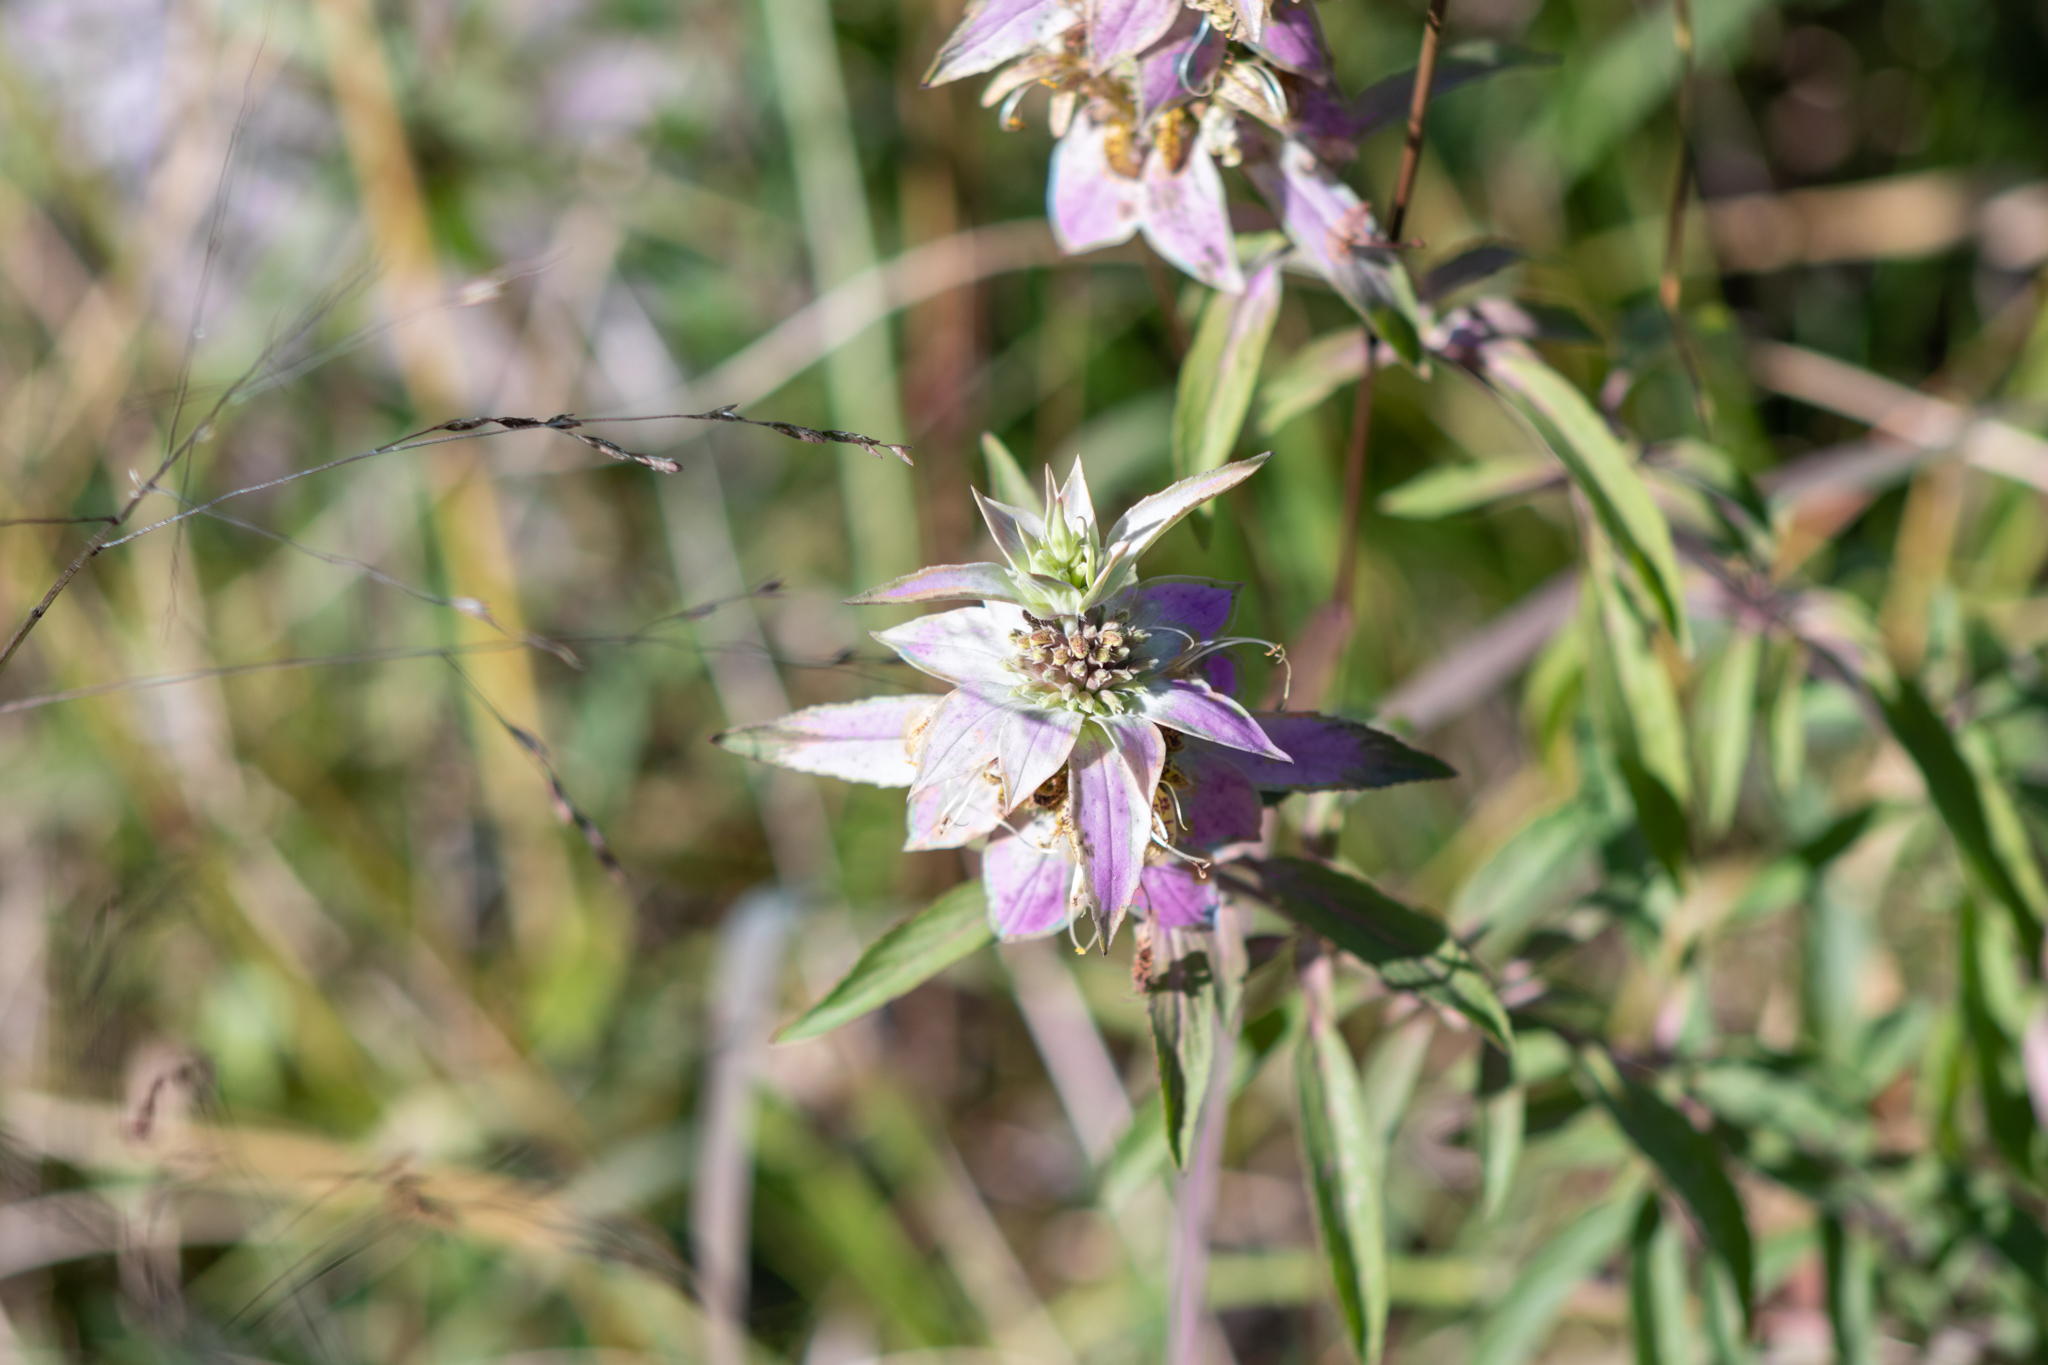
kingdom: Plantae
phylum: Tracheophyta
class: Magnoliopsida
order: Lamiales
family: Lamiaceae
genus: Monarda
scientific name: Monarda punctata
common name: Dotted monarda
